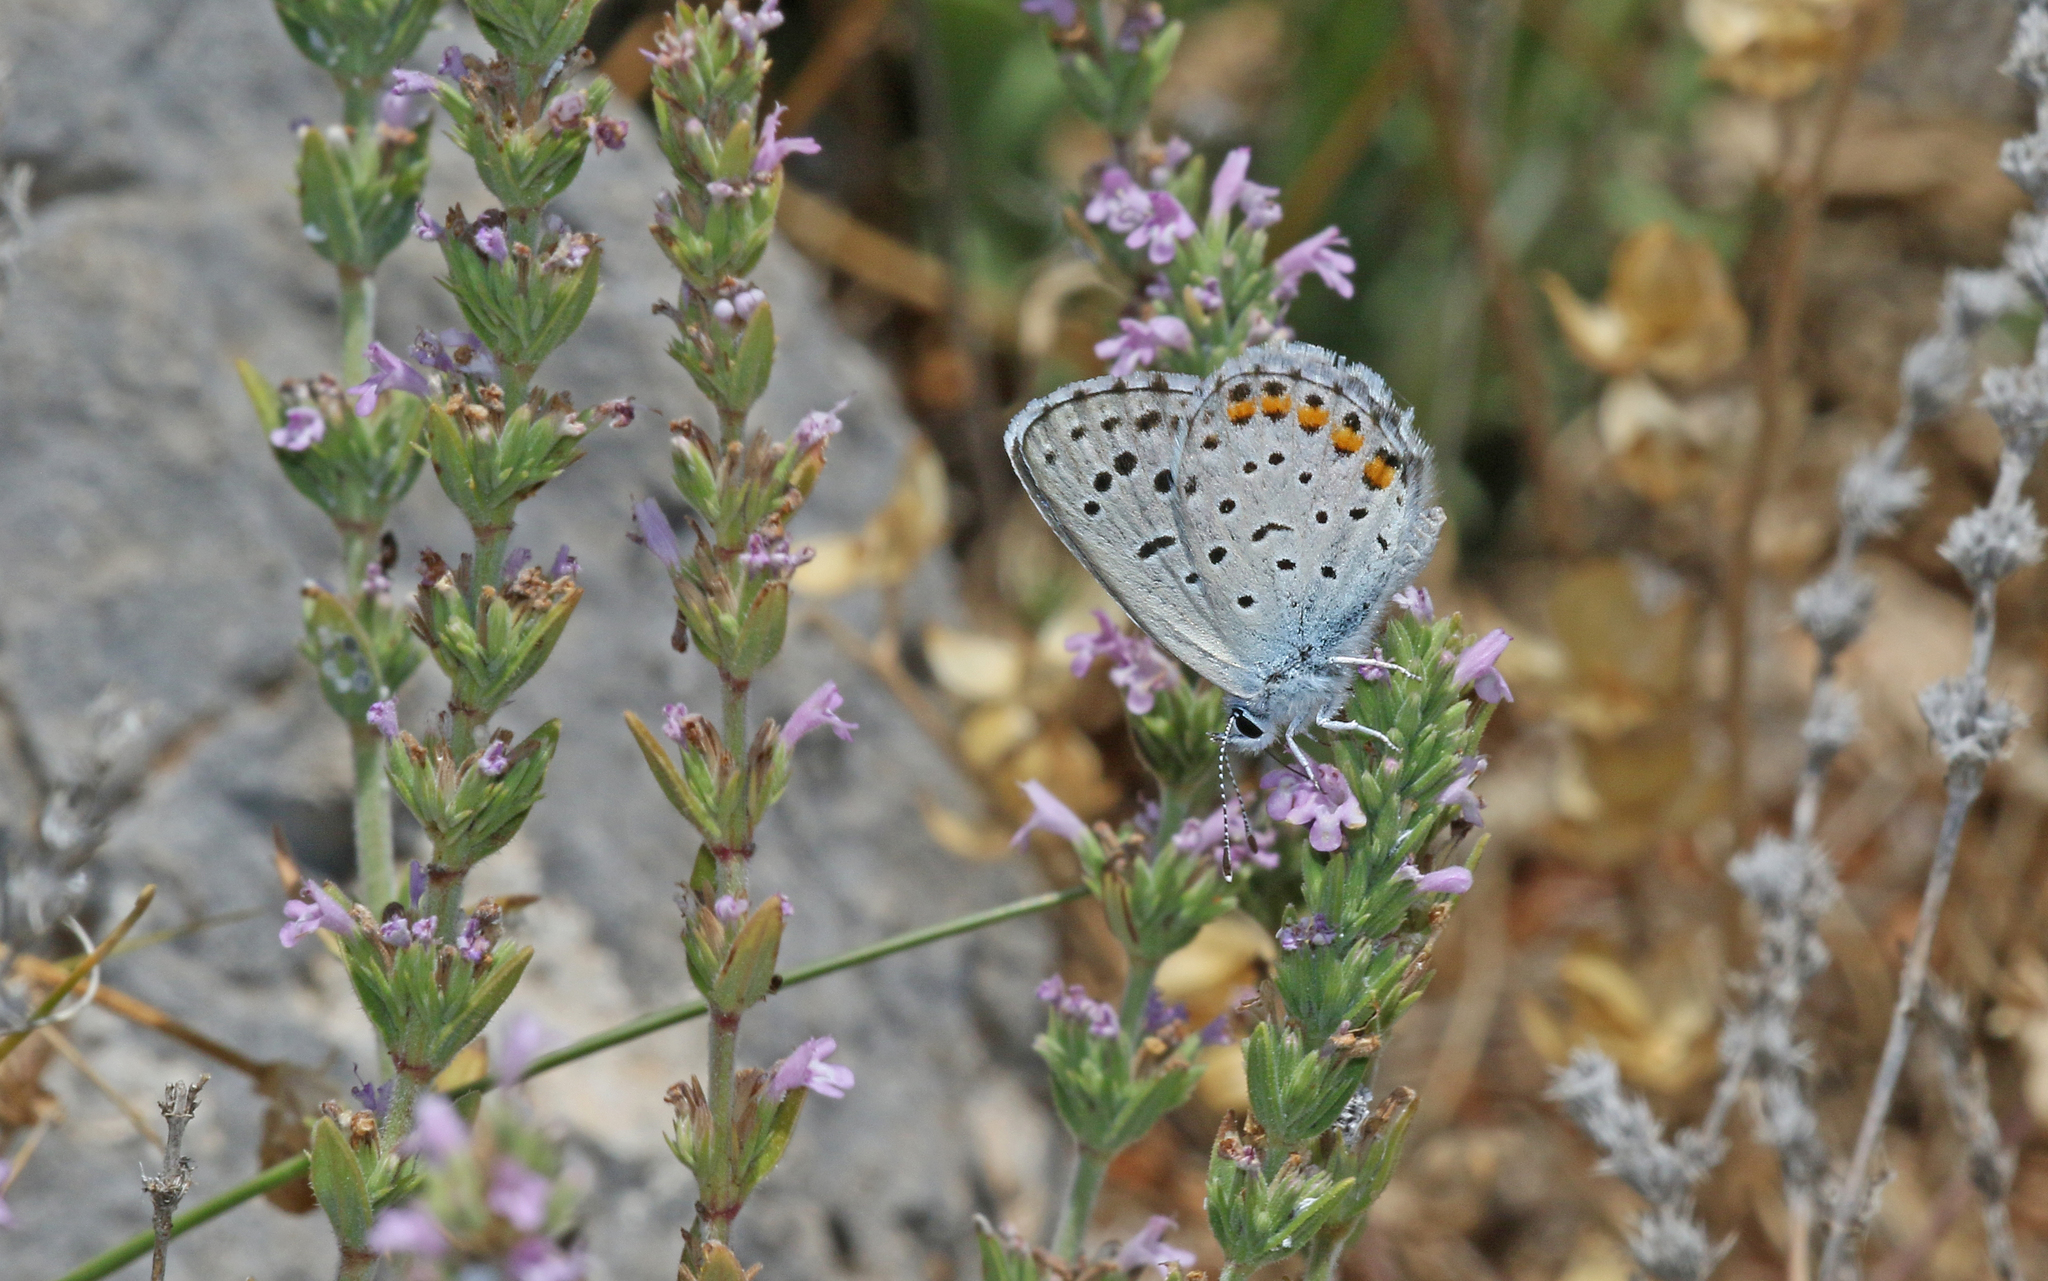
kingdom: Animalia
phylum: Arthropoda
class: Insecta
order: Lepidoptera
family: Lycaenidae
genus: Pseudophilotes
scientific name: Pseudophilotes baton
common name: Baton blue
